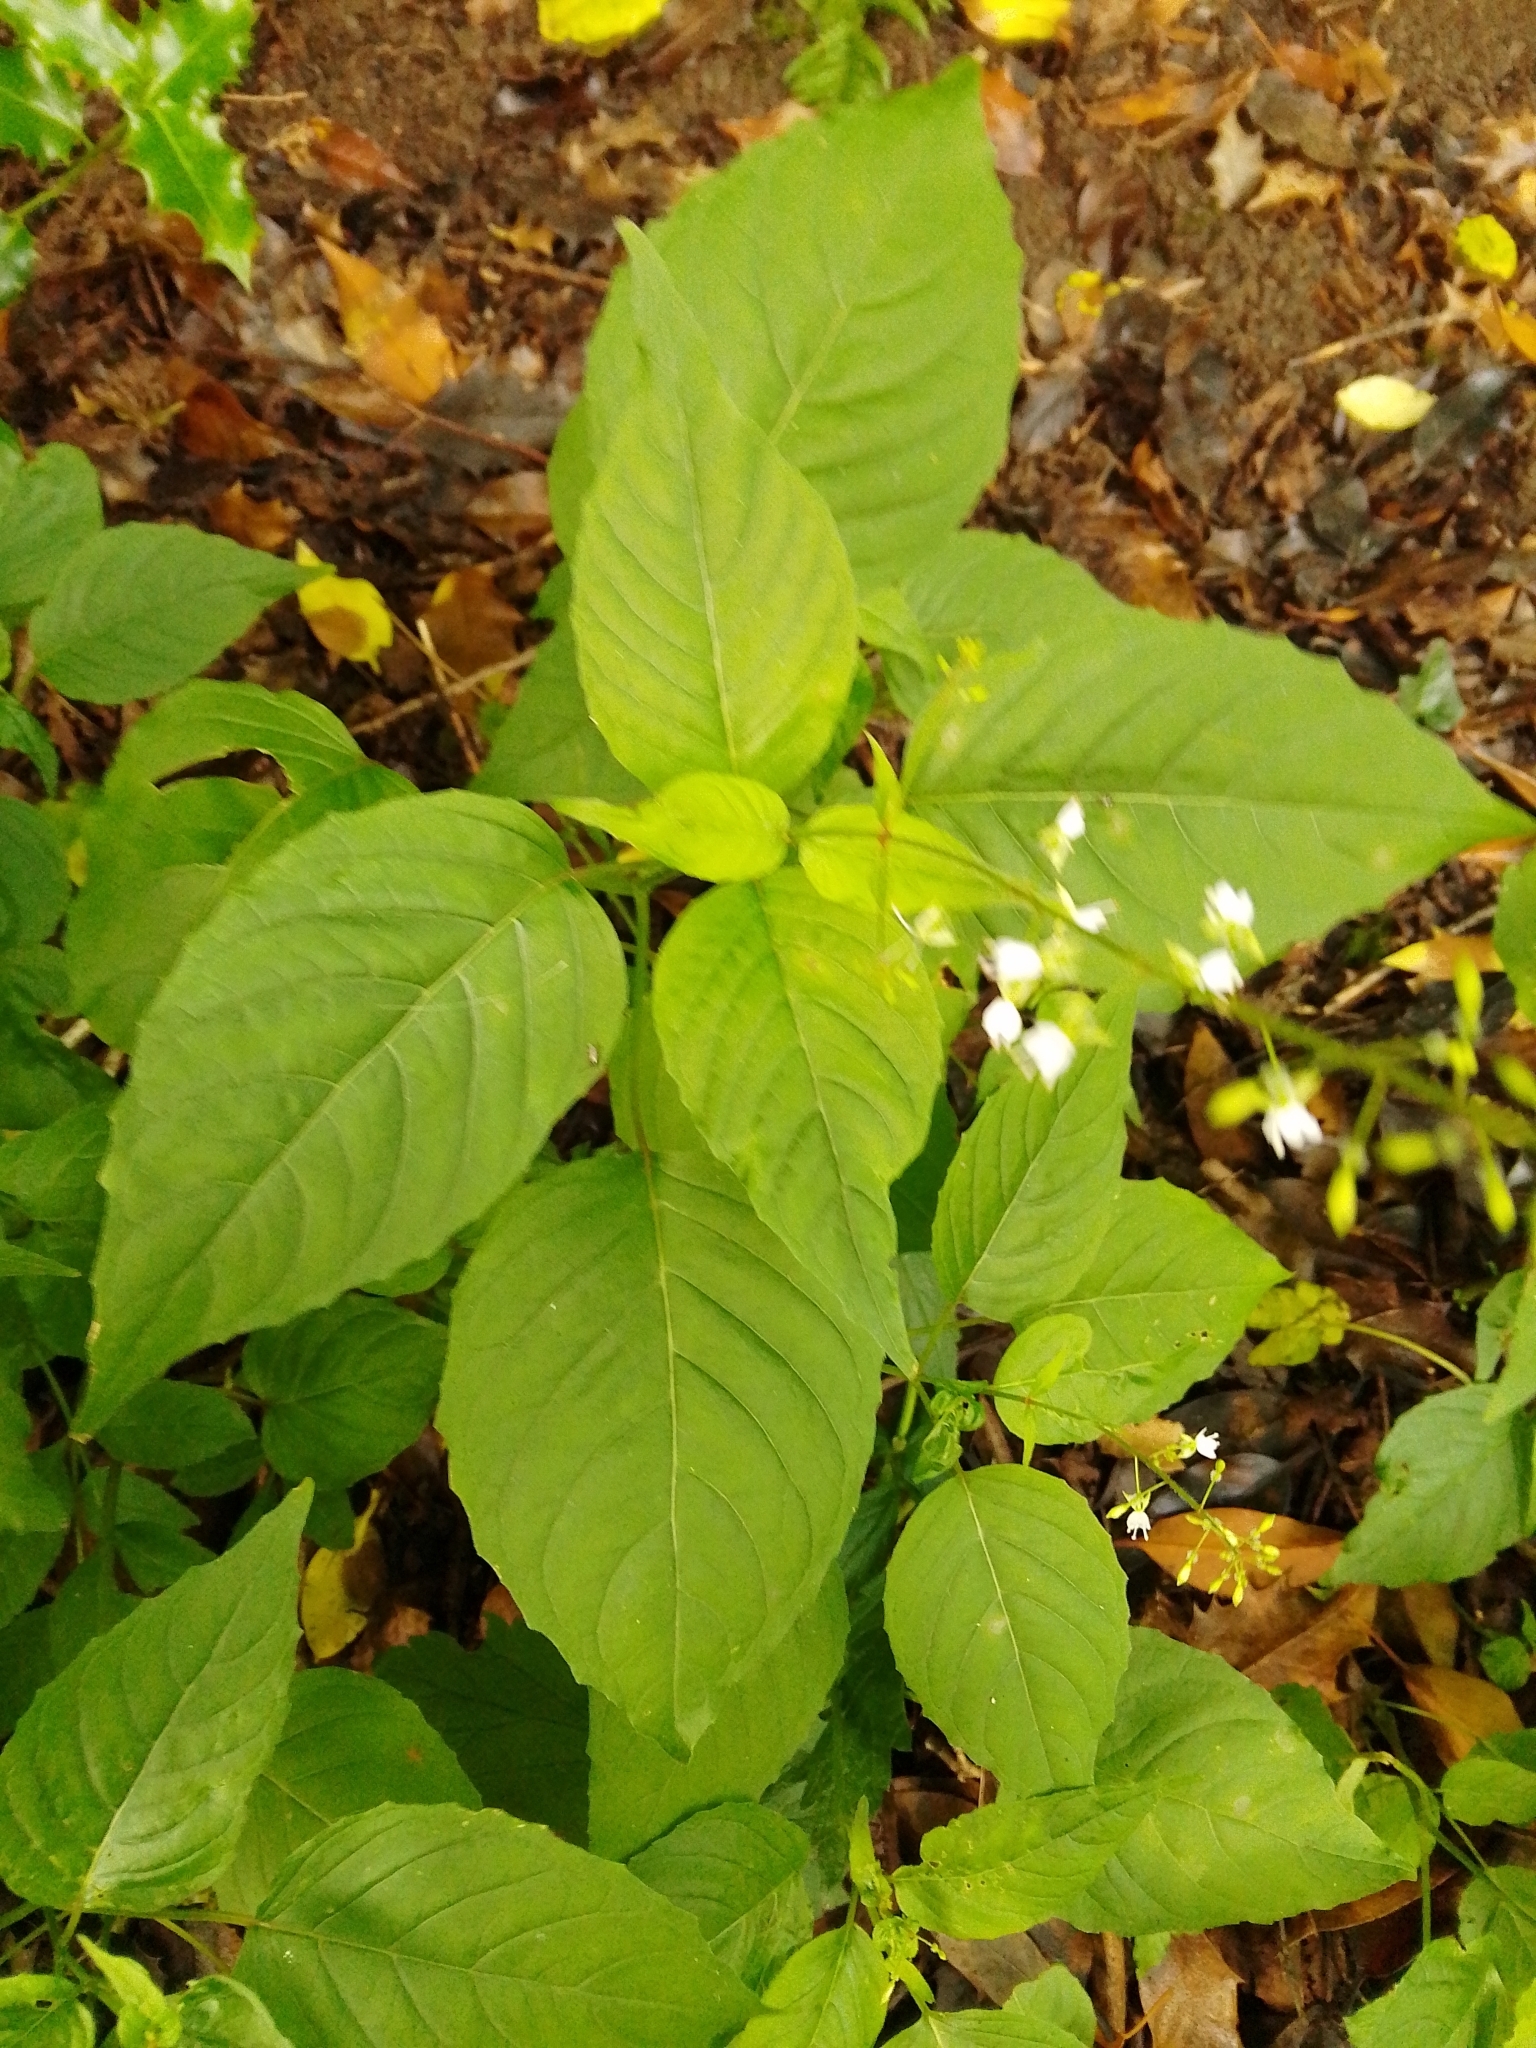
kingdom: Plantae
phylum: Tracheophyta
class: Magnoliopsida
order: Myrtales
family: Onagraceae
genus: Circaea
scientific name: Circaea lutetiana
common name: Enchanter's-nightshade
